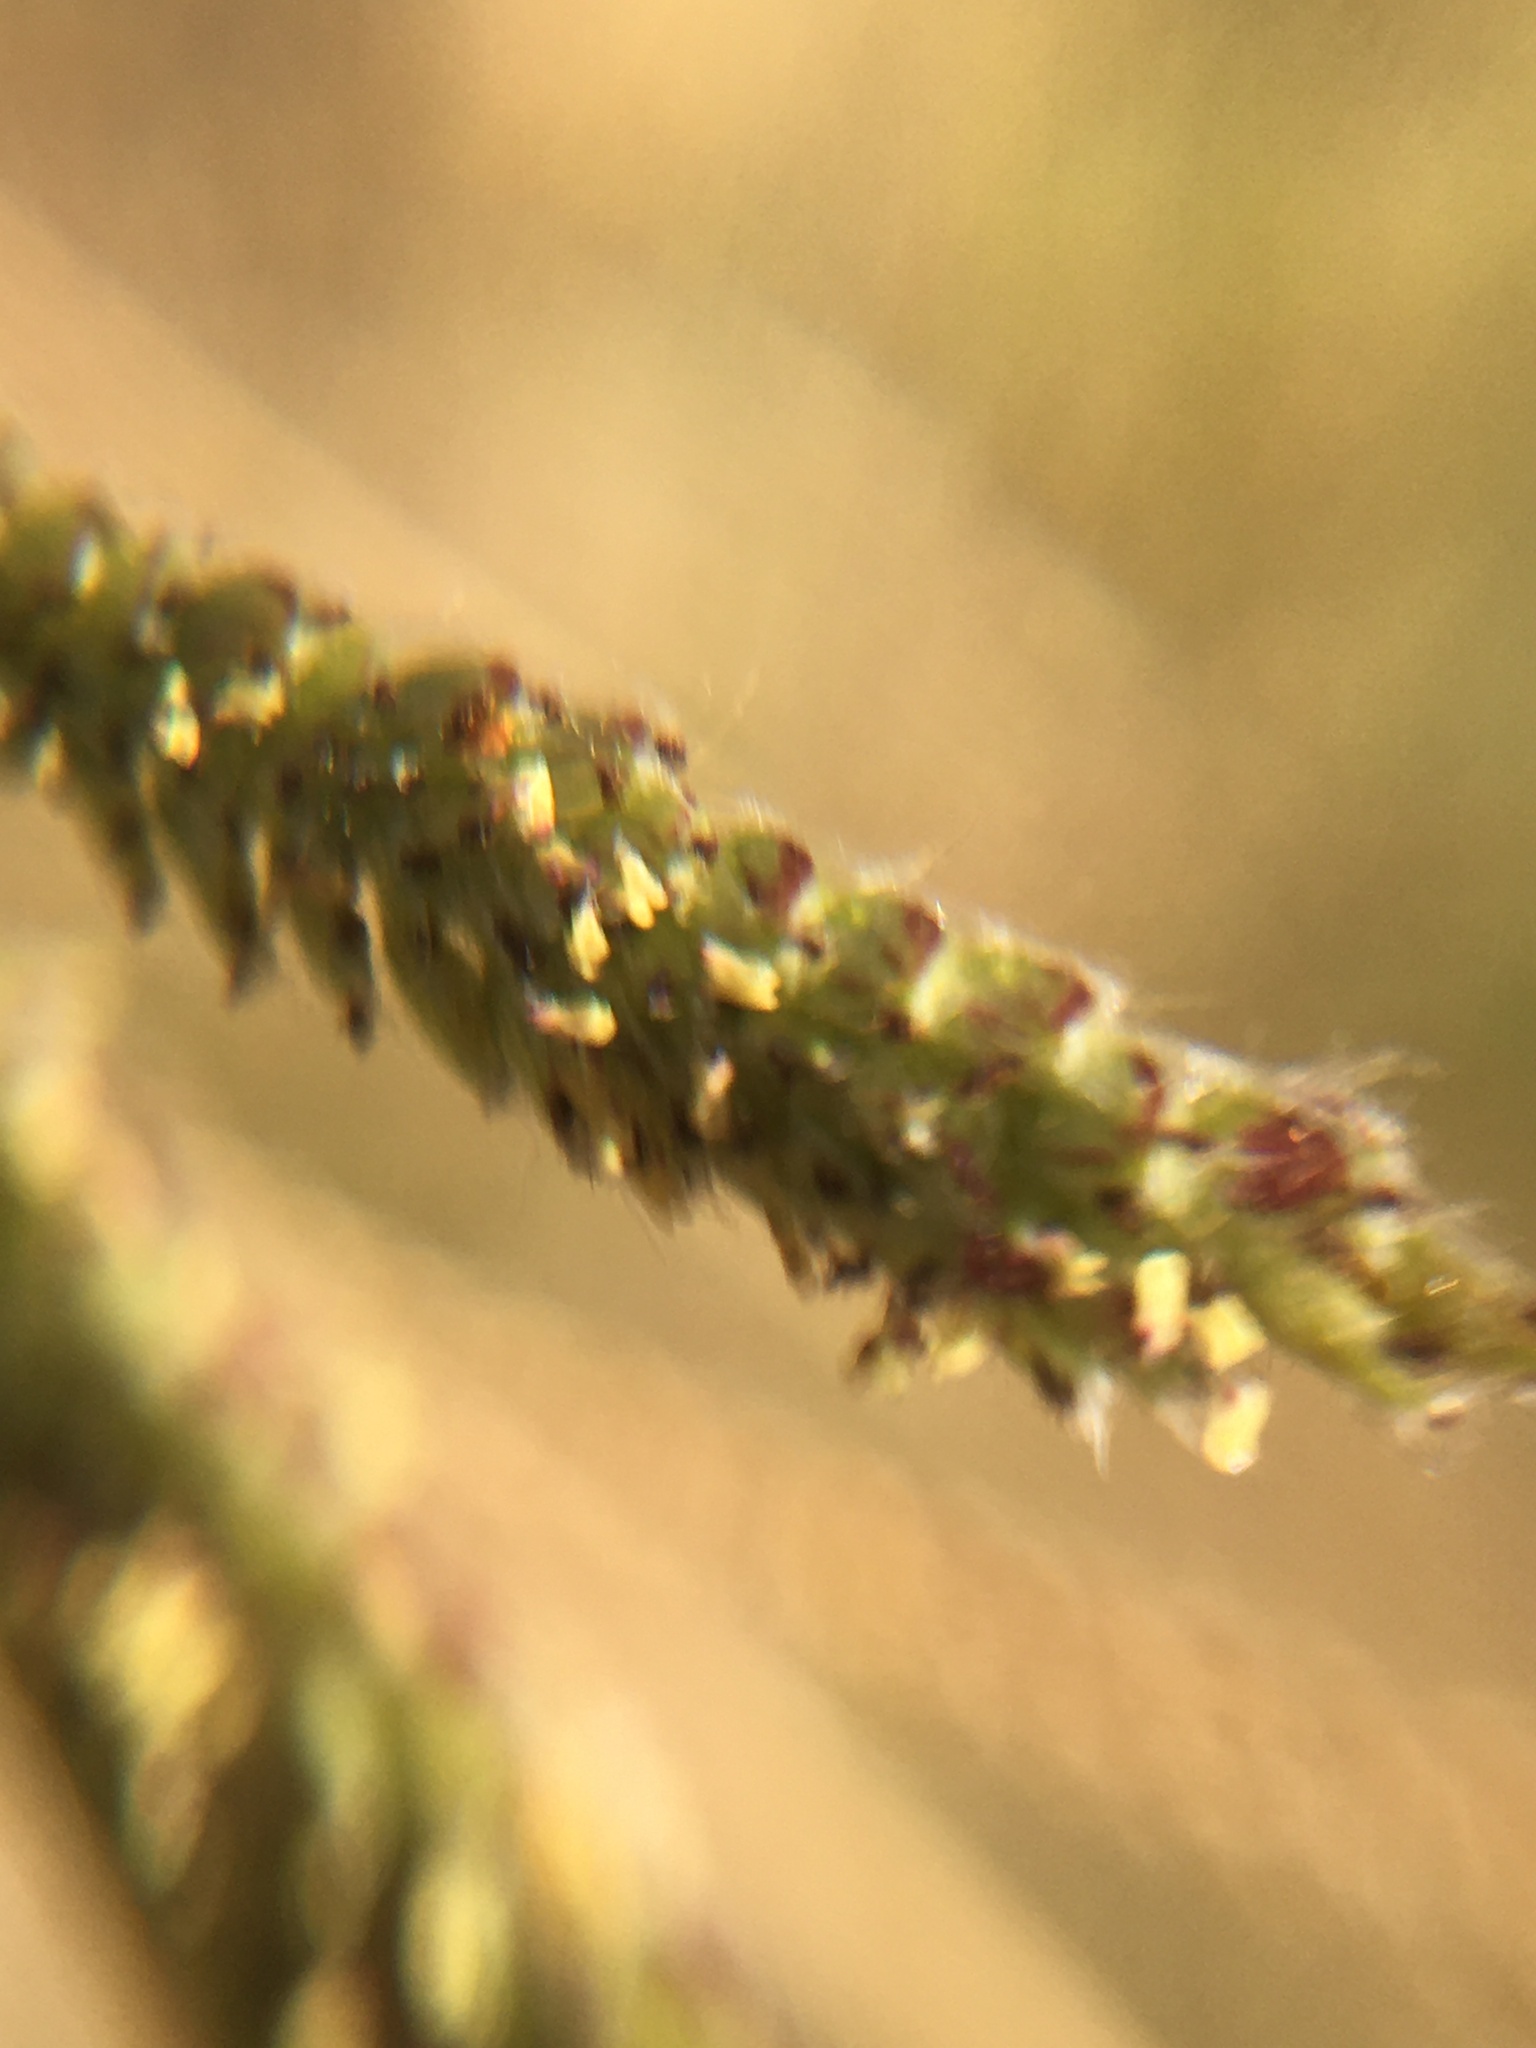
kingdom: Plantae
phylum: Tracheophyta
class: Liliopsida
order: Poales
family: Poaceae
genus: Paspalum
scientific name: Paspalum urvillei
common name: Vasey's grass
